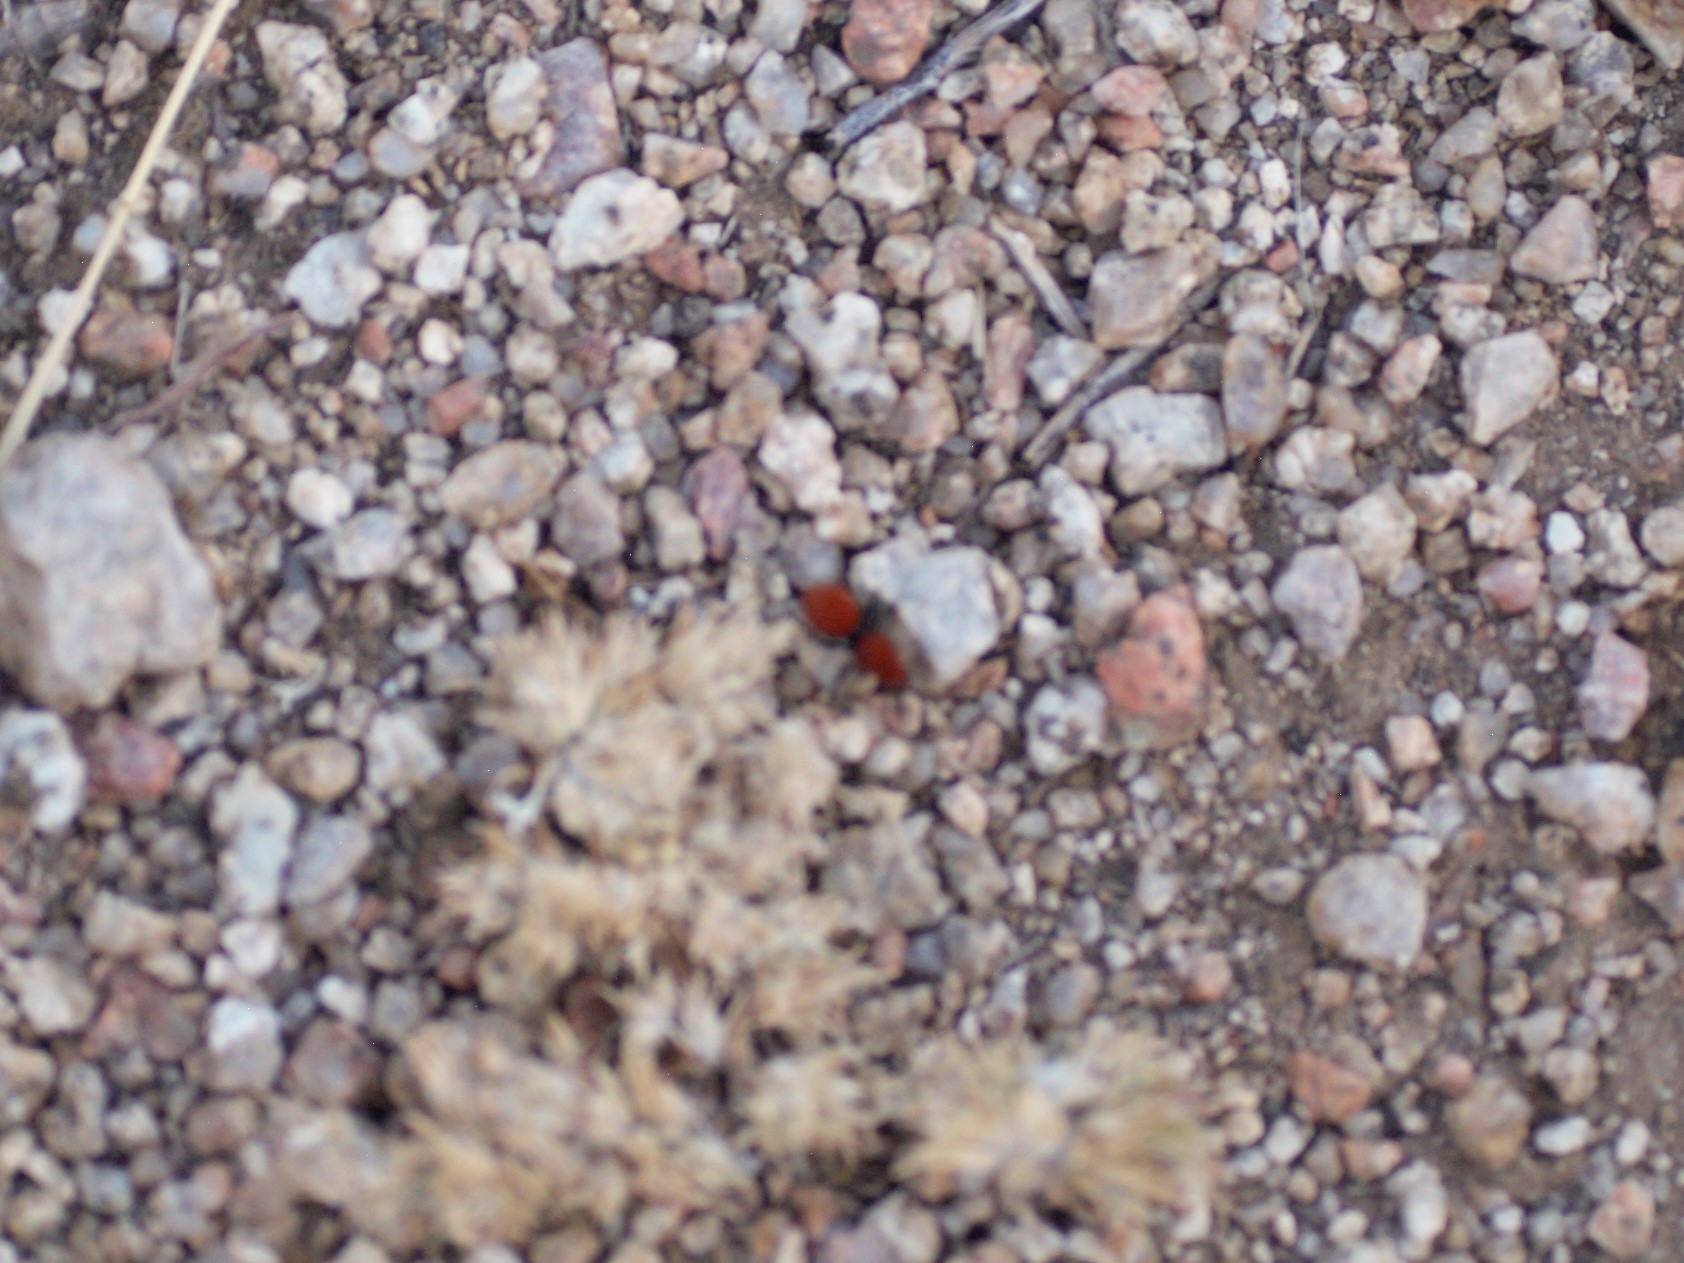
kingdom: Animalia
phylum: Arthropoda
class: Insecta
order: Hymenoptera
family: Mutillidae
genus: Dasymutilla
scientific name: Dasymutilla vestita
